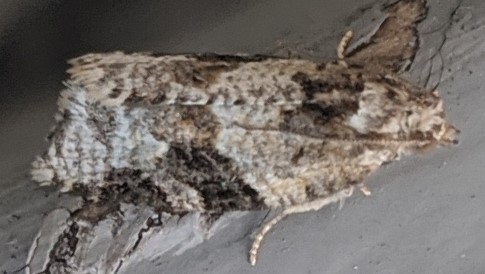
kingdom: Animalia
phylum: Arthropoda
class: Insecta
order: Lepidoptera
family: Tortricidae
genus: Argyrotaenia
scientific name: Argyrotaenia mariana
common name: Gray-banded leafroller moth
